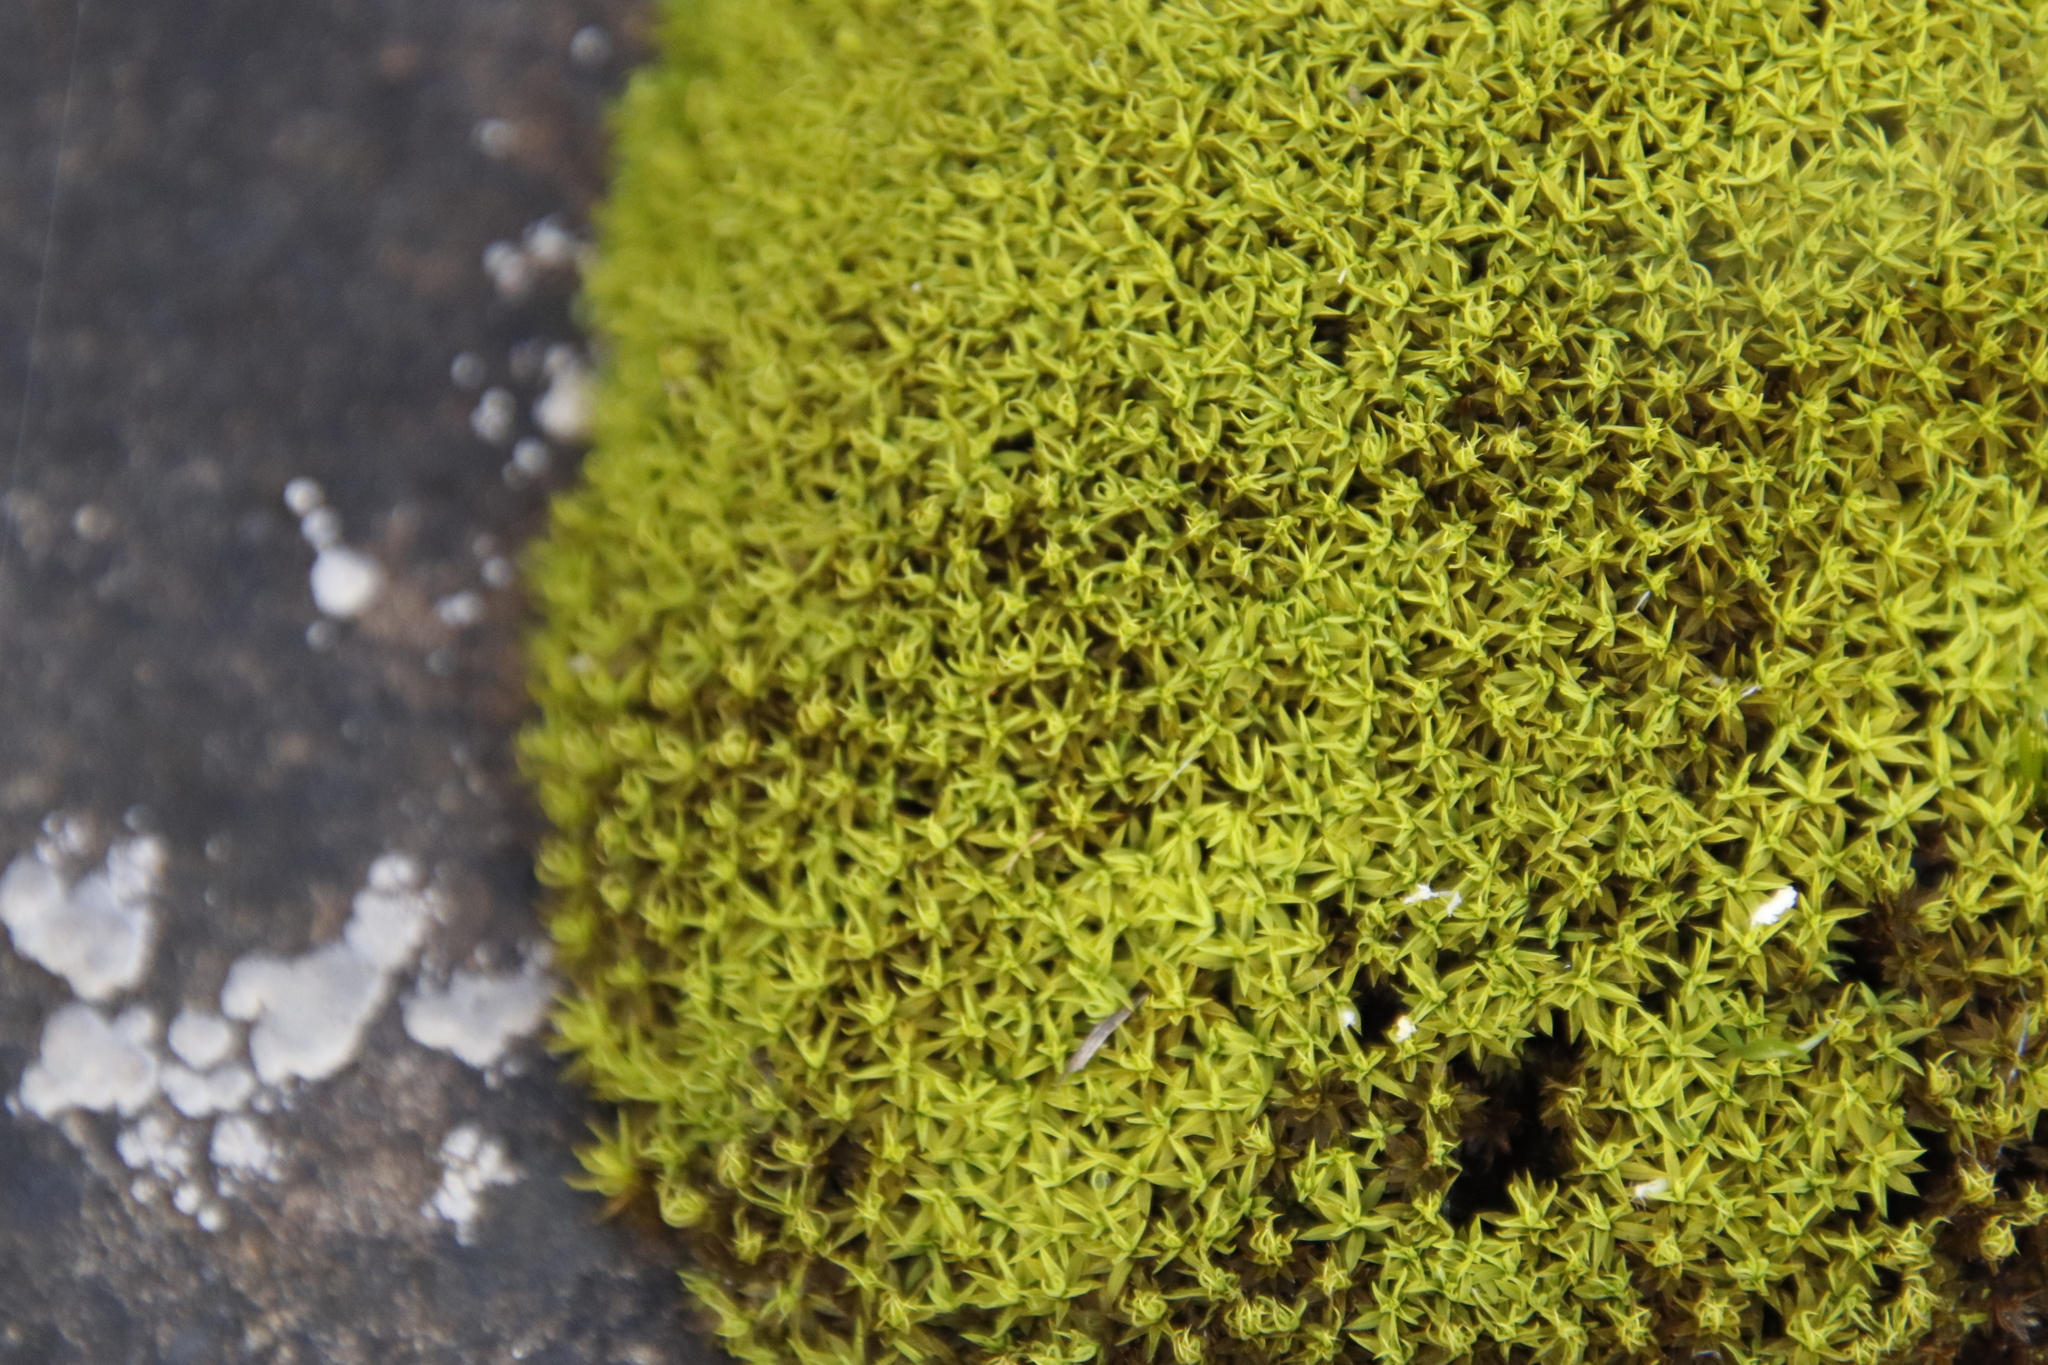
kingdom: Plantae
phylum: Bryophyta
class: Bryopsida
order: Pottiales
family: Pottiaceae
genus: Trichostomum
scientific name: Trichostomum brachydontium
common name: Variable crisp-moss
